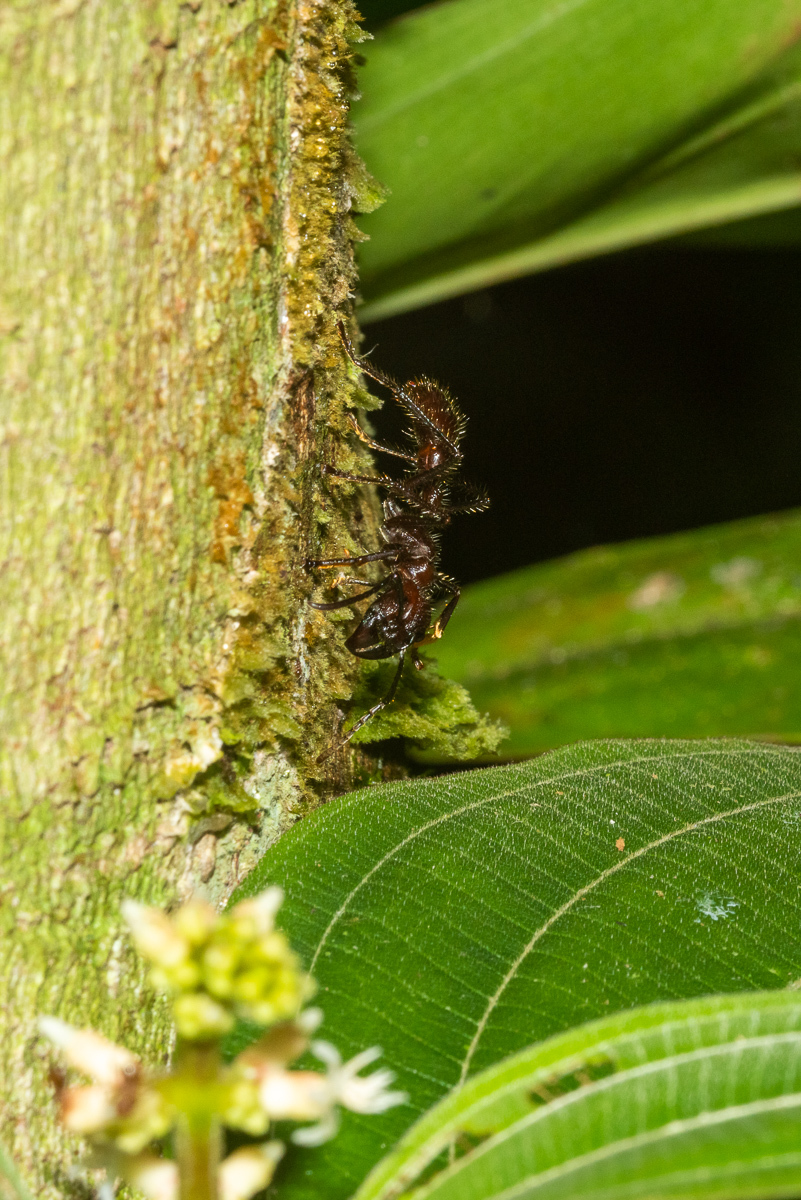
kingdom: Animalia
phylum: Arthropoda
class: Insecta
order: Hymenoptera
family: Formicidae
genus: Paraponera
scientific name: Paraponera clavata
